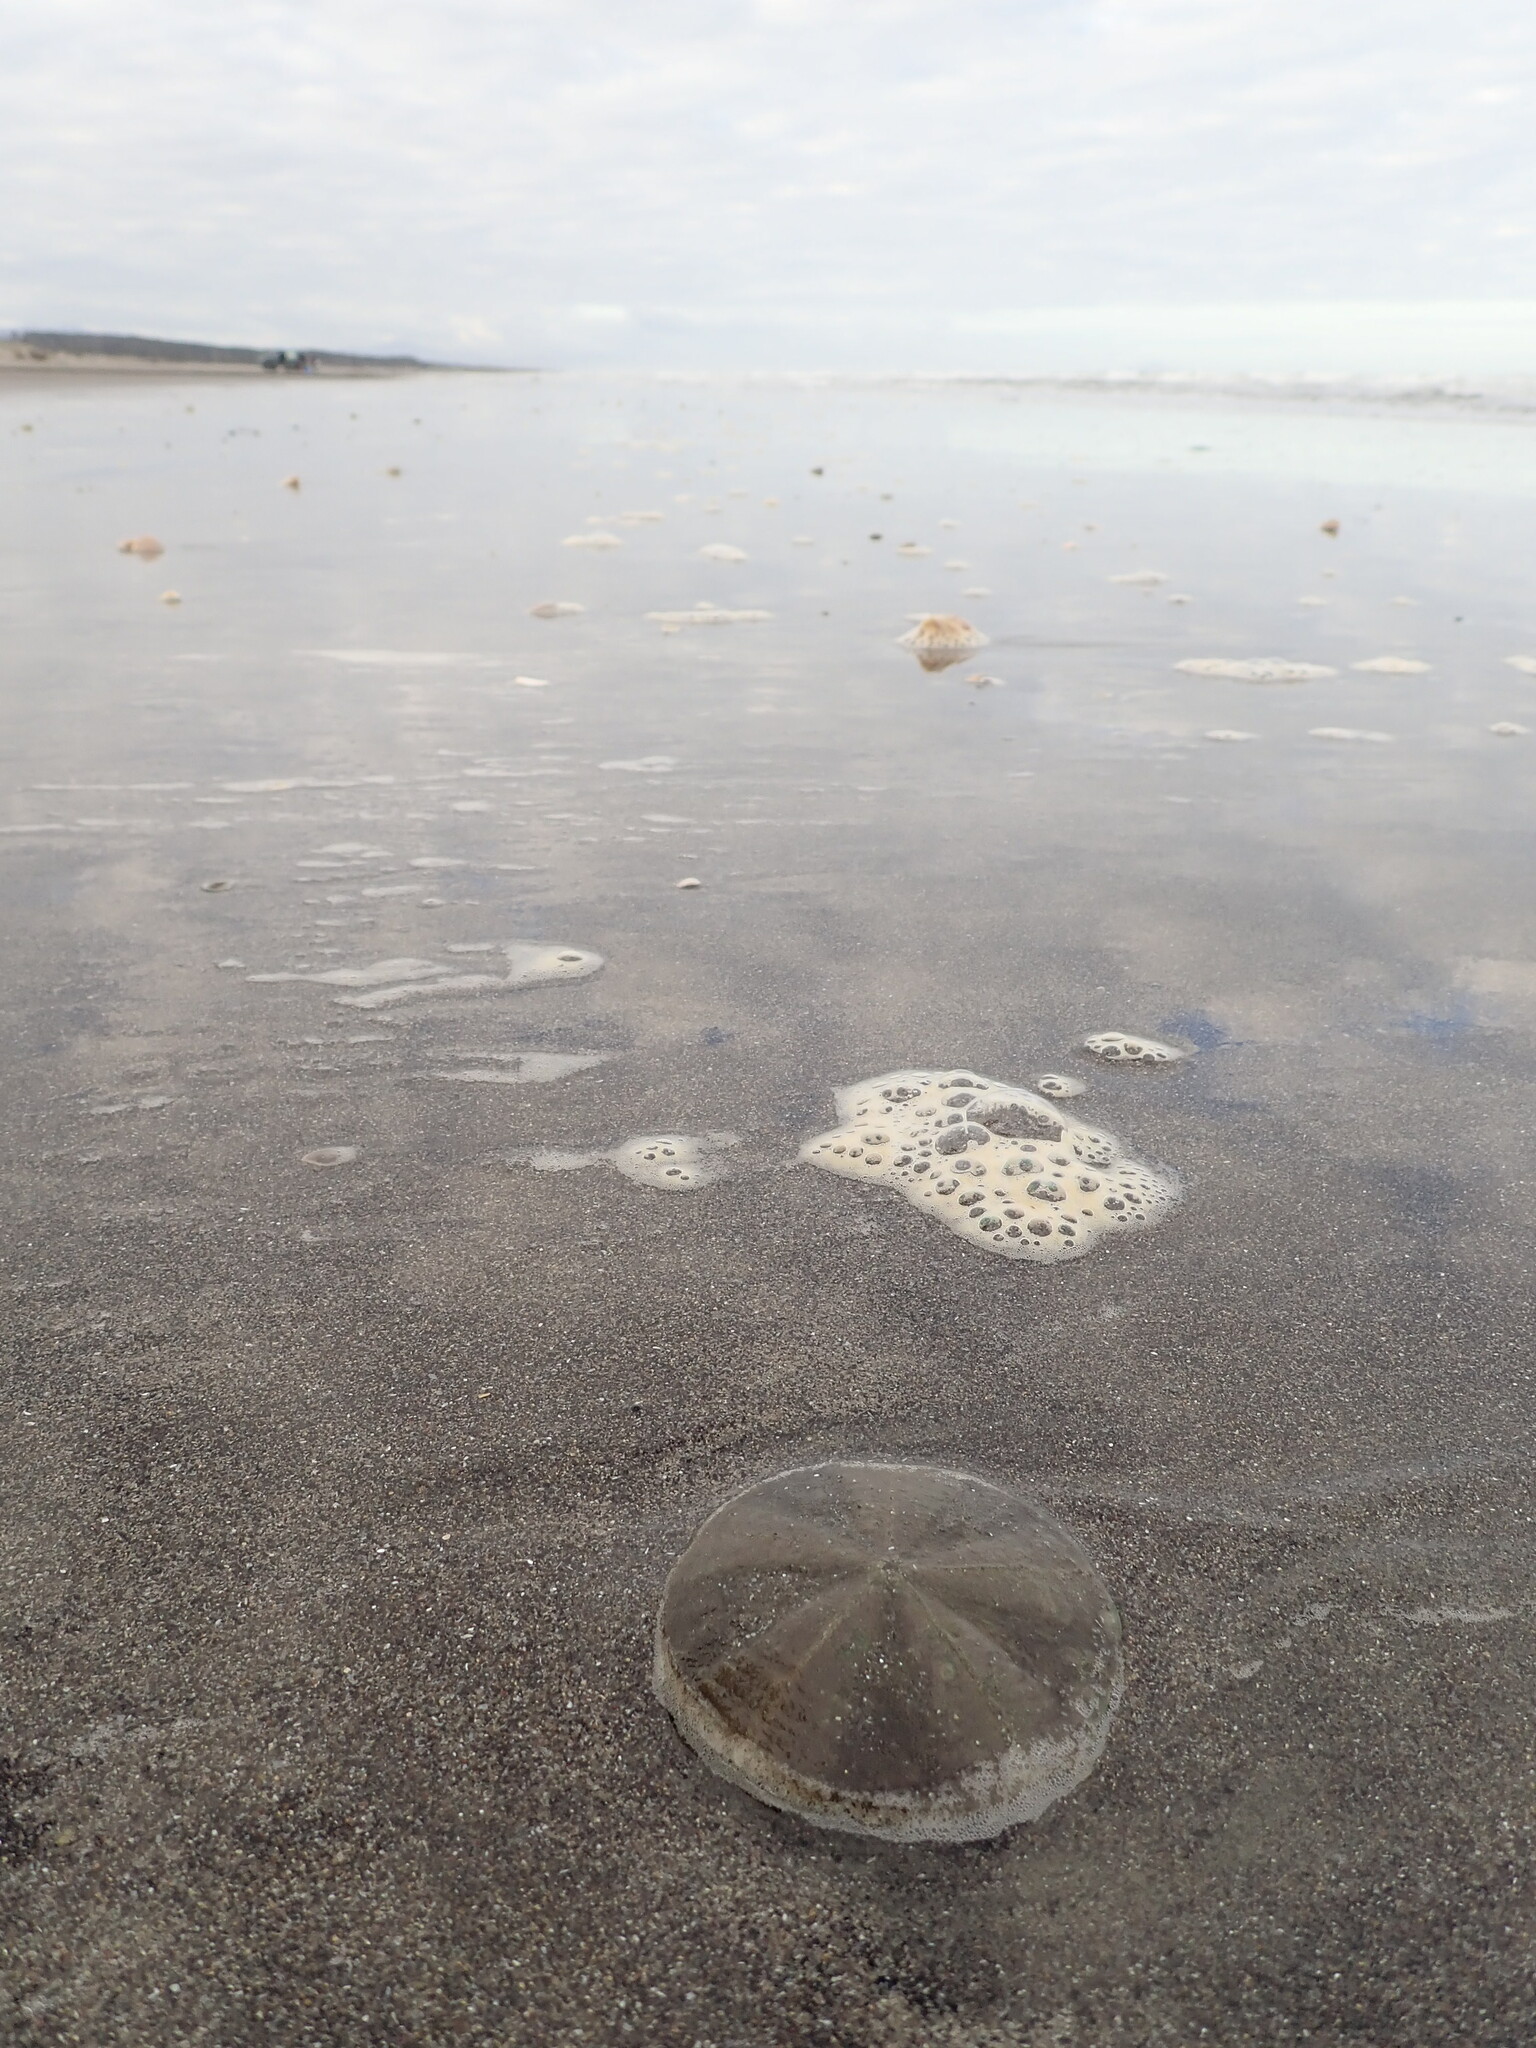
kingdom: Animalia
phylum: Echinodermata
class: Echinoidea
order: Clypeasteroida
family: Clypeasteridae
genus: Fellaster
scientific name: Fellaster zelandiae
